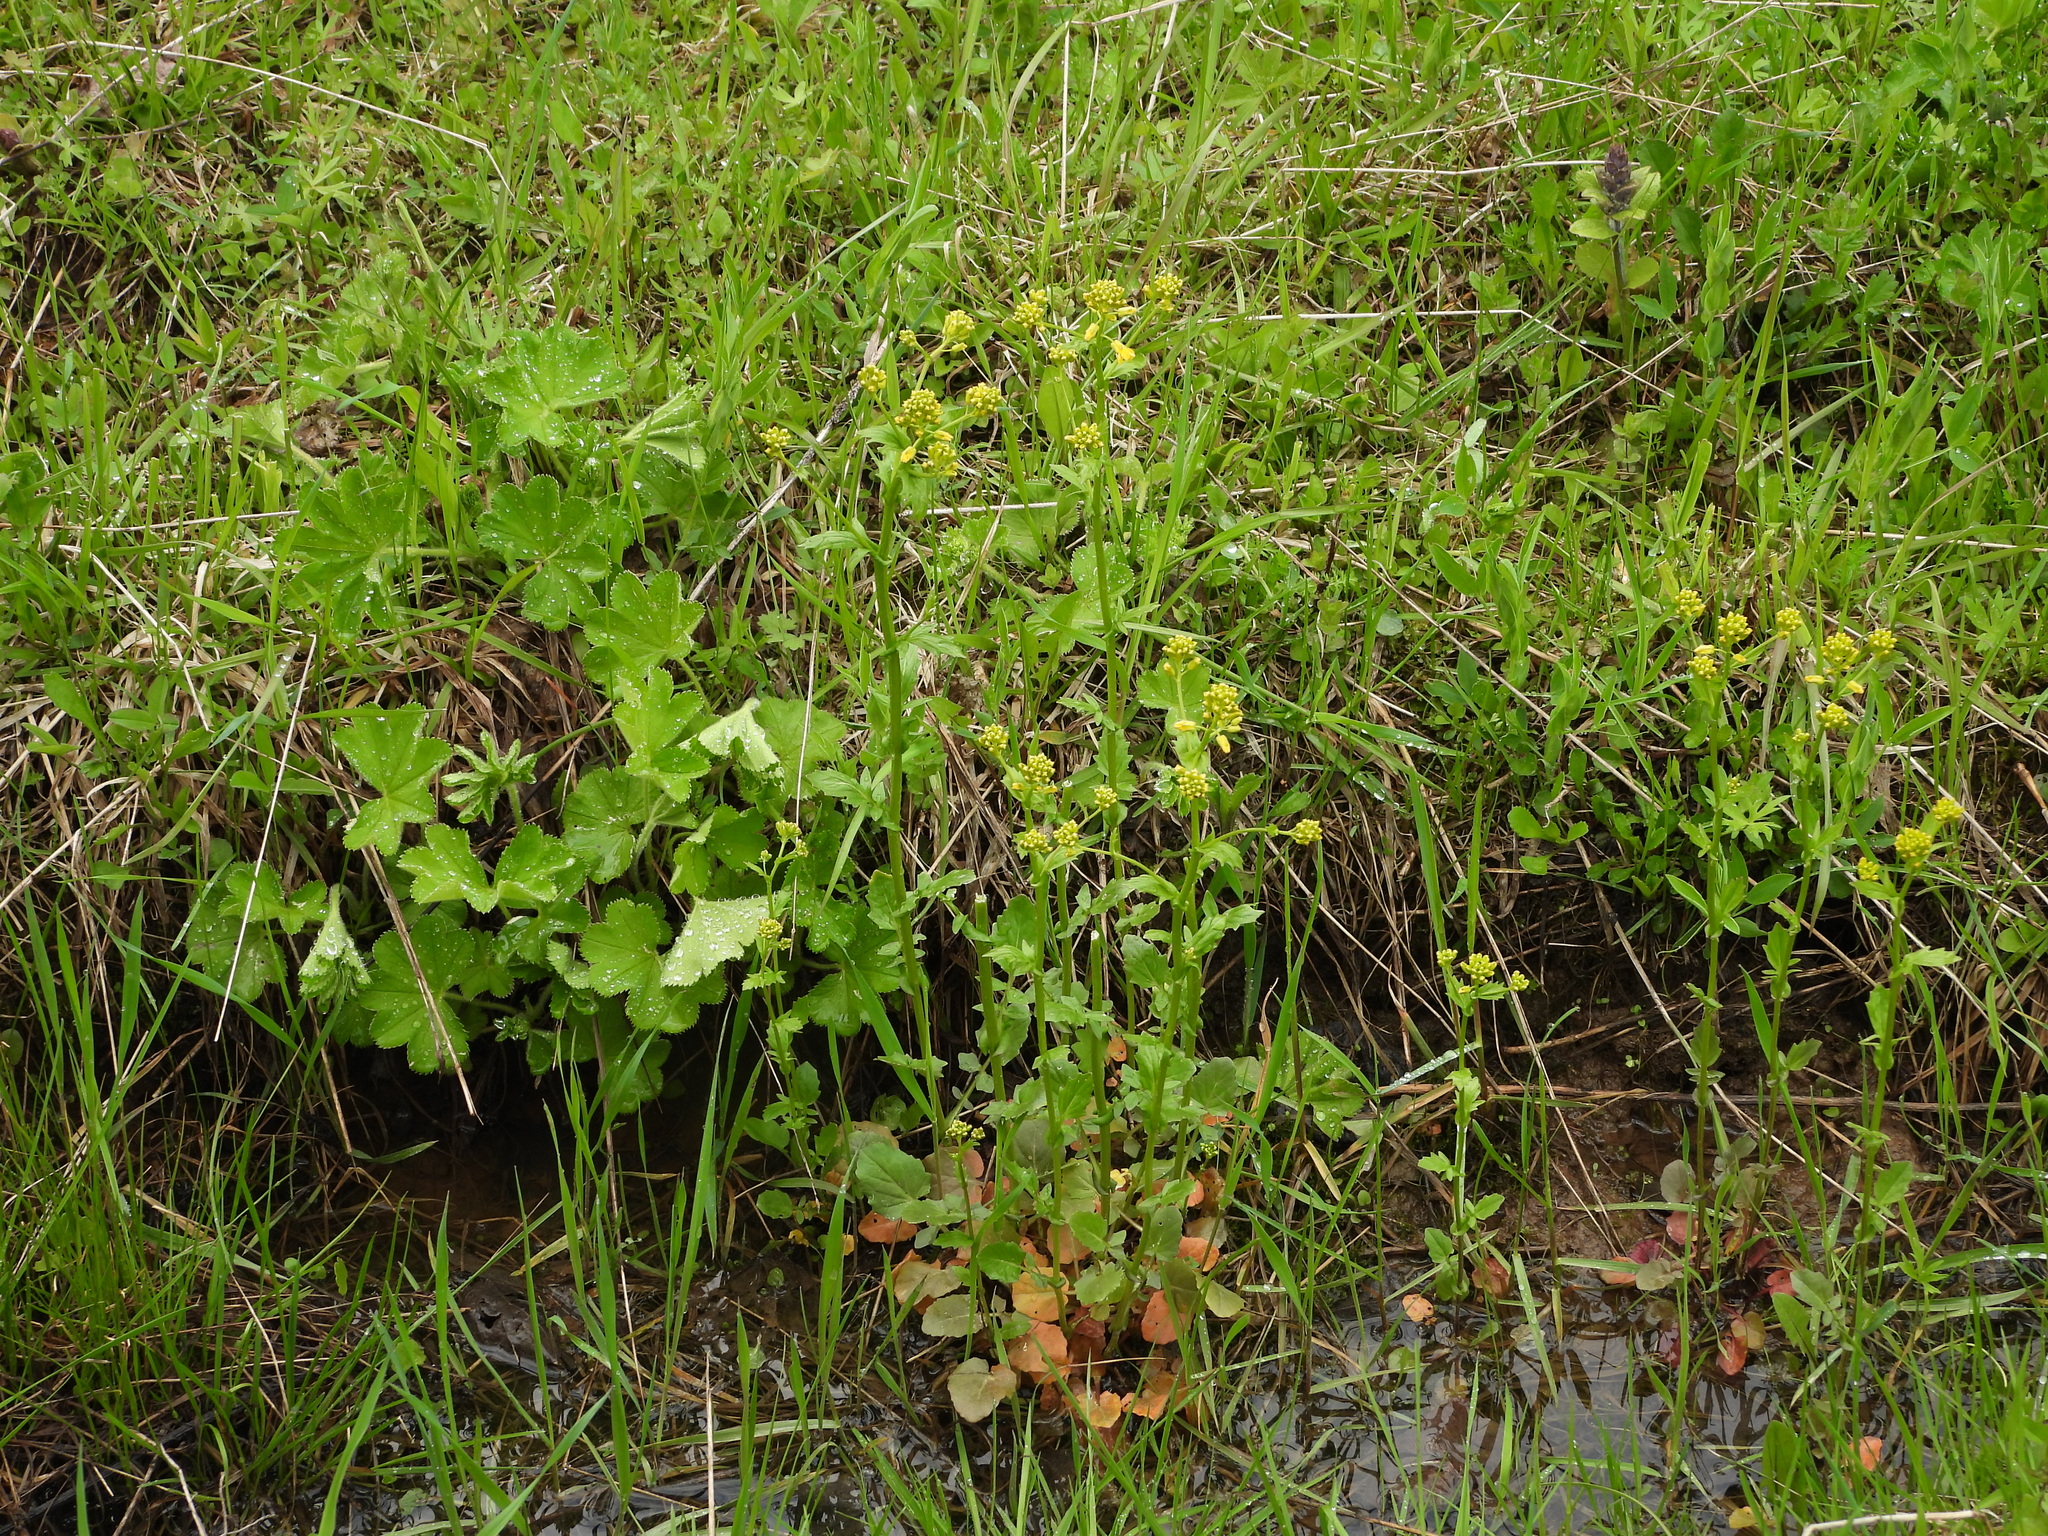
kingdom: Plantae
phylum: Tracheophyta
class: Magnoliopsida
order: Brassicales
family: Brassicaceae
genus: Barbarea
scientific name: Barbarea vulgaris
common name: Cressy-greens
